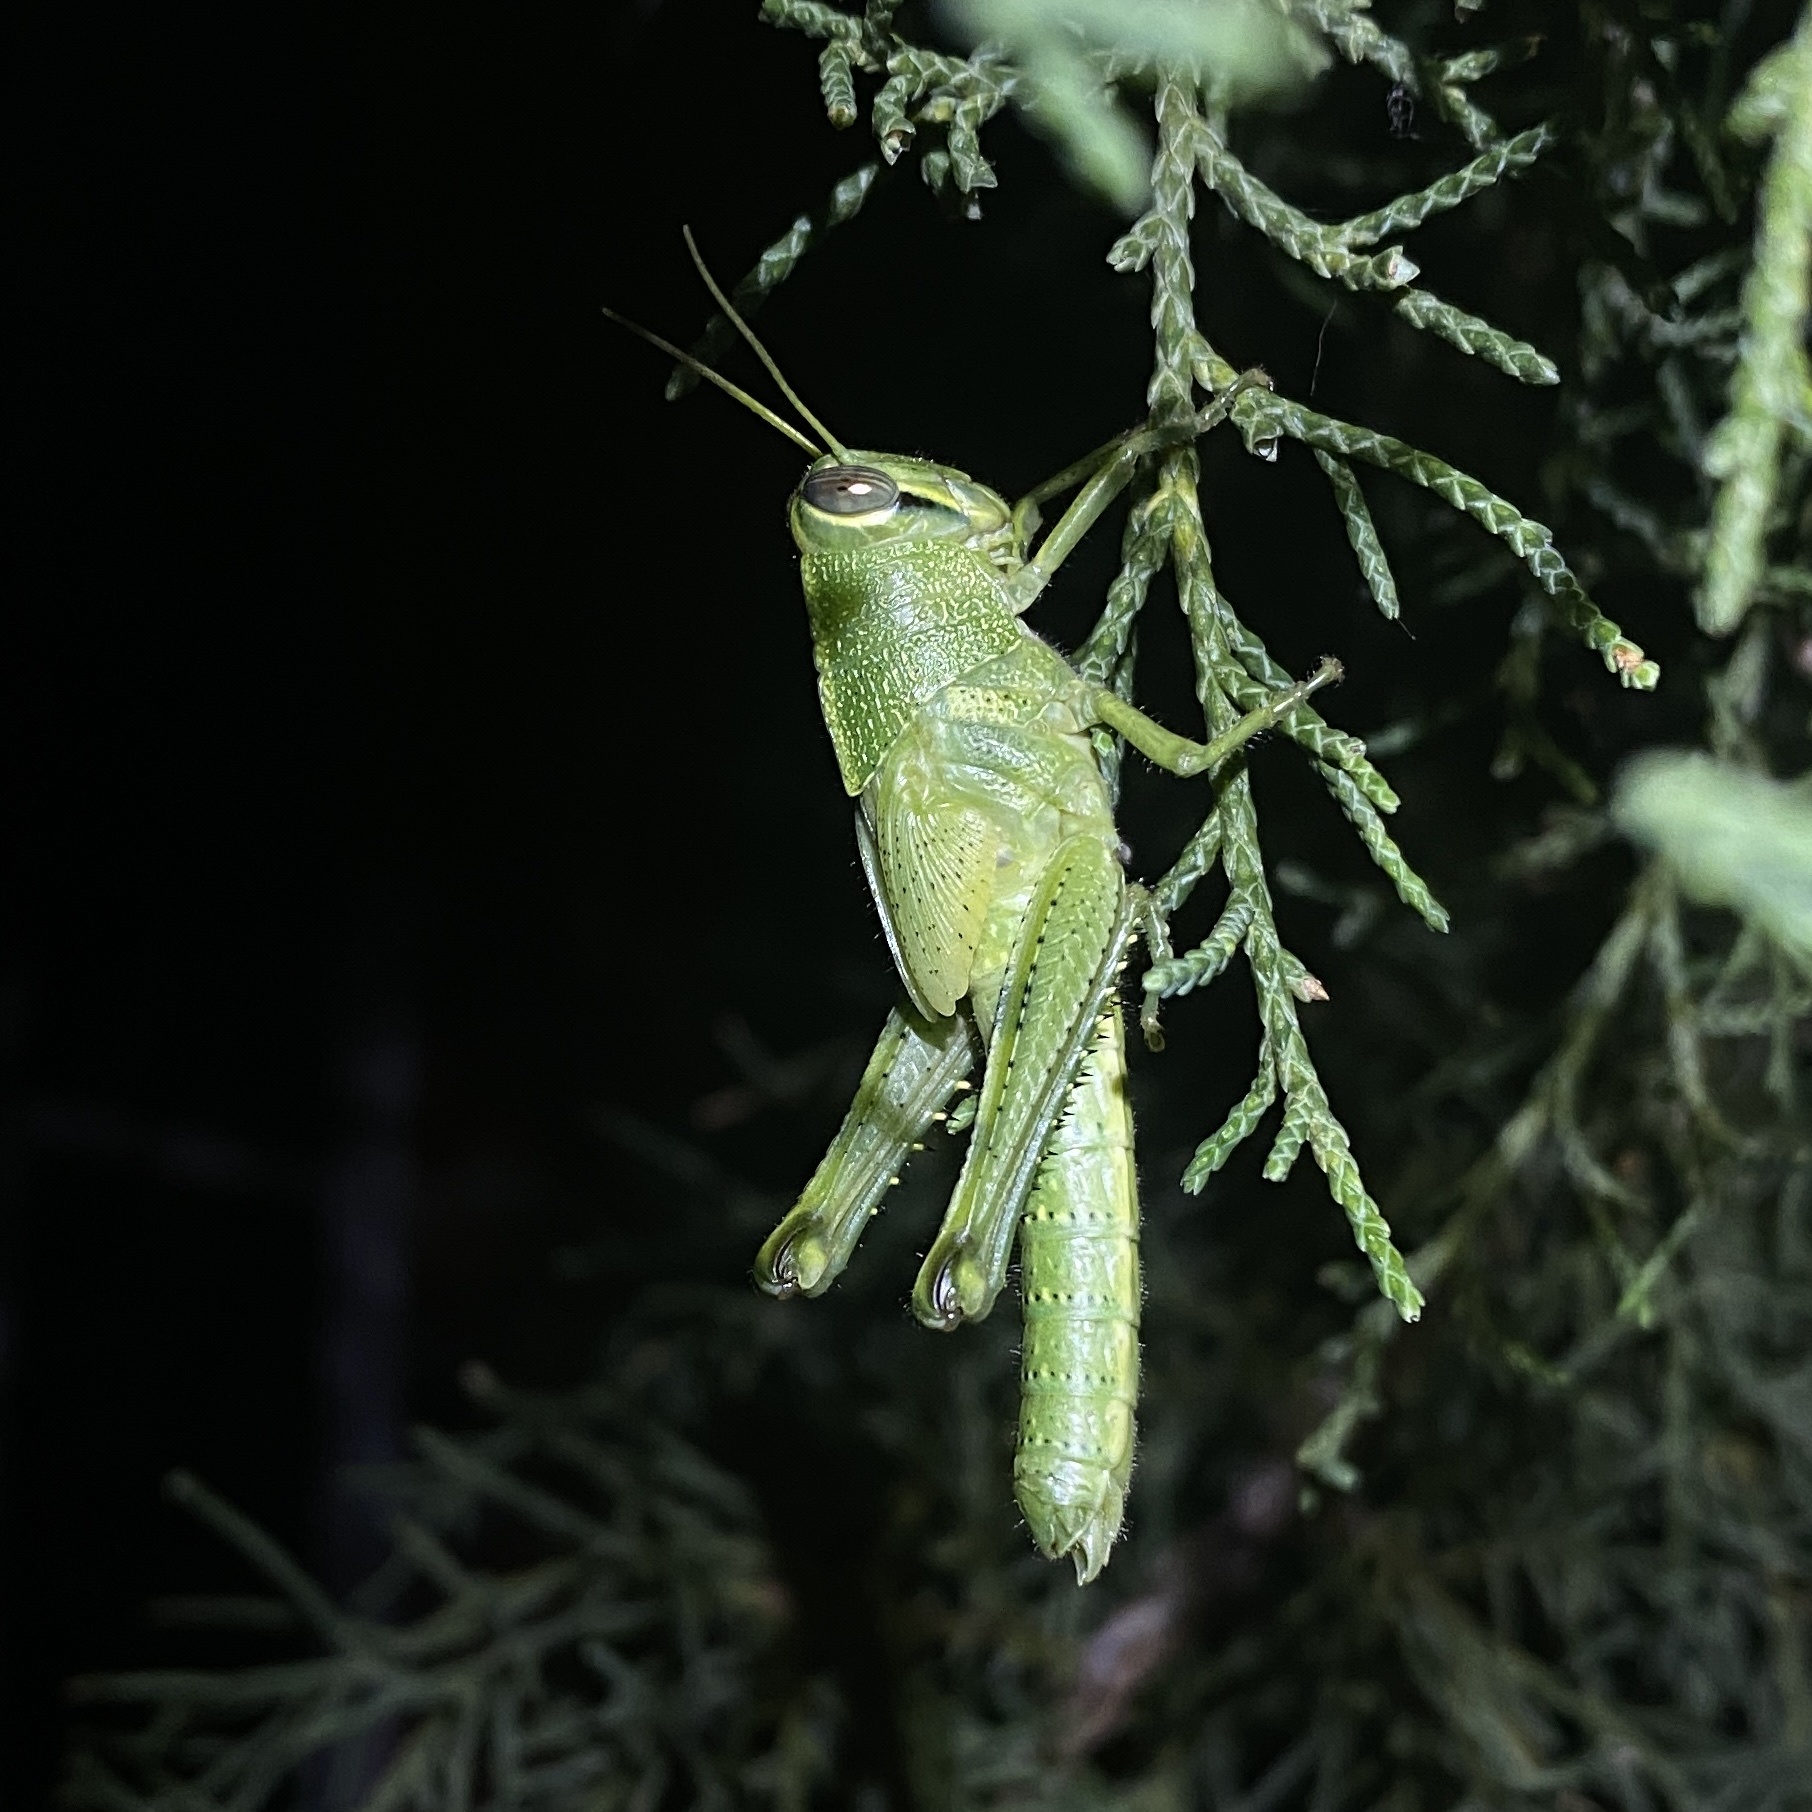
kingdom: Animalia
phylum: Arthropoda
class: Insecta
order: Orthoptera
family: Acrididae
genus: Schistocerca
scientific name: Schistocerca obscura
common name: Obscure bird grasshopper
